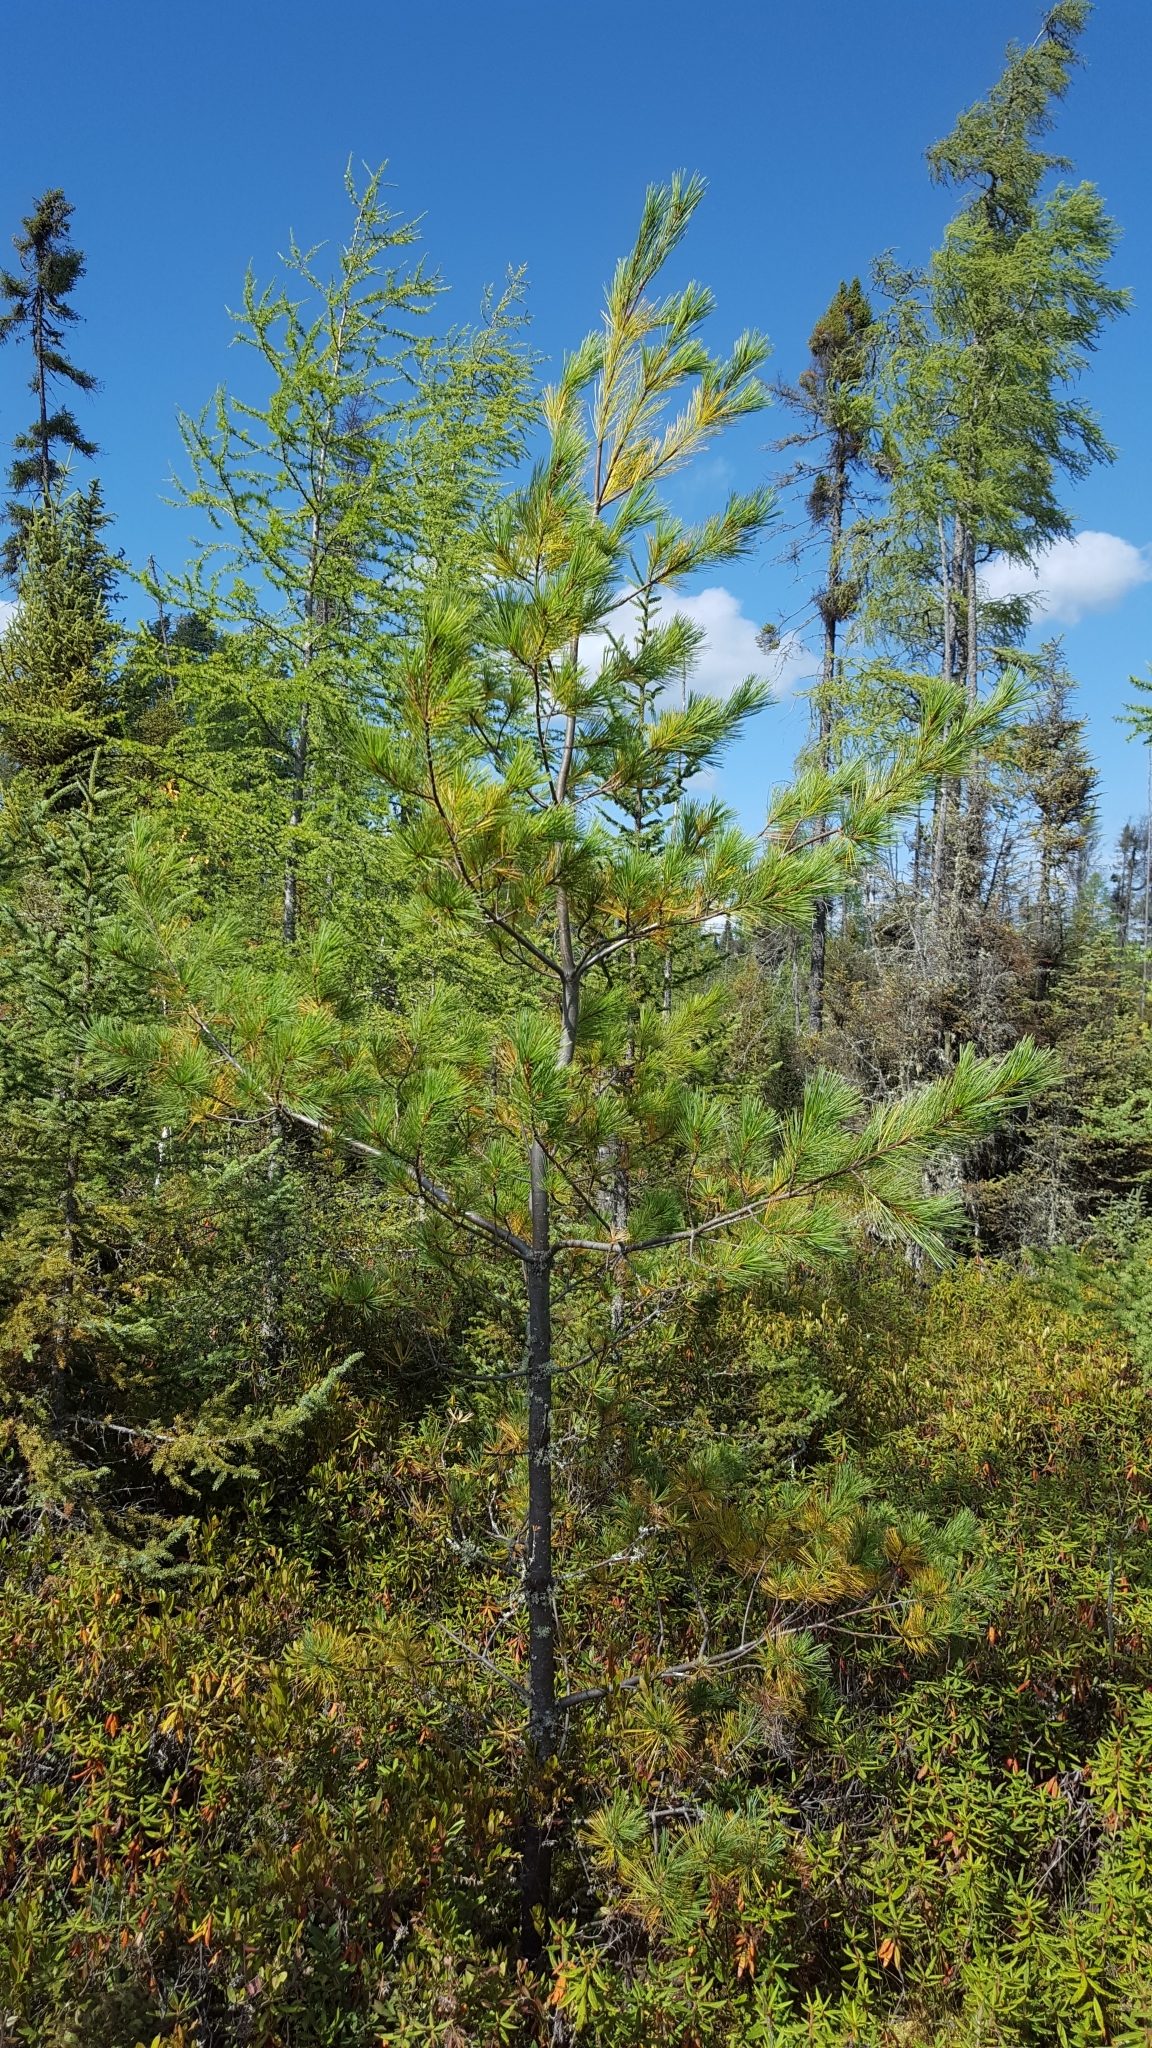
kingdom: Plantae
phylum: Tracheophyta
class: Pinopsida
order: Pinales
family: Pinaceae
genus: Pinus
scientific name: Pinus strobus
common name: Weymouth pine
